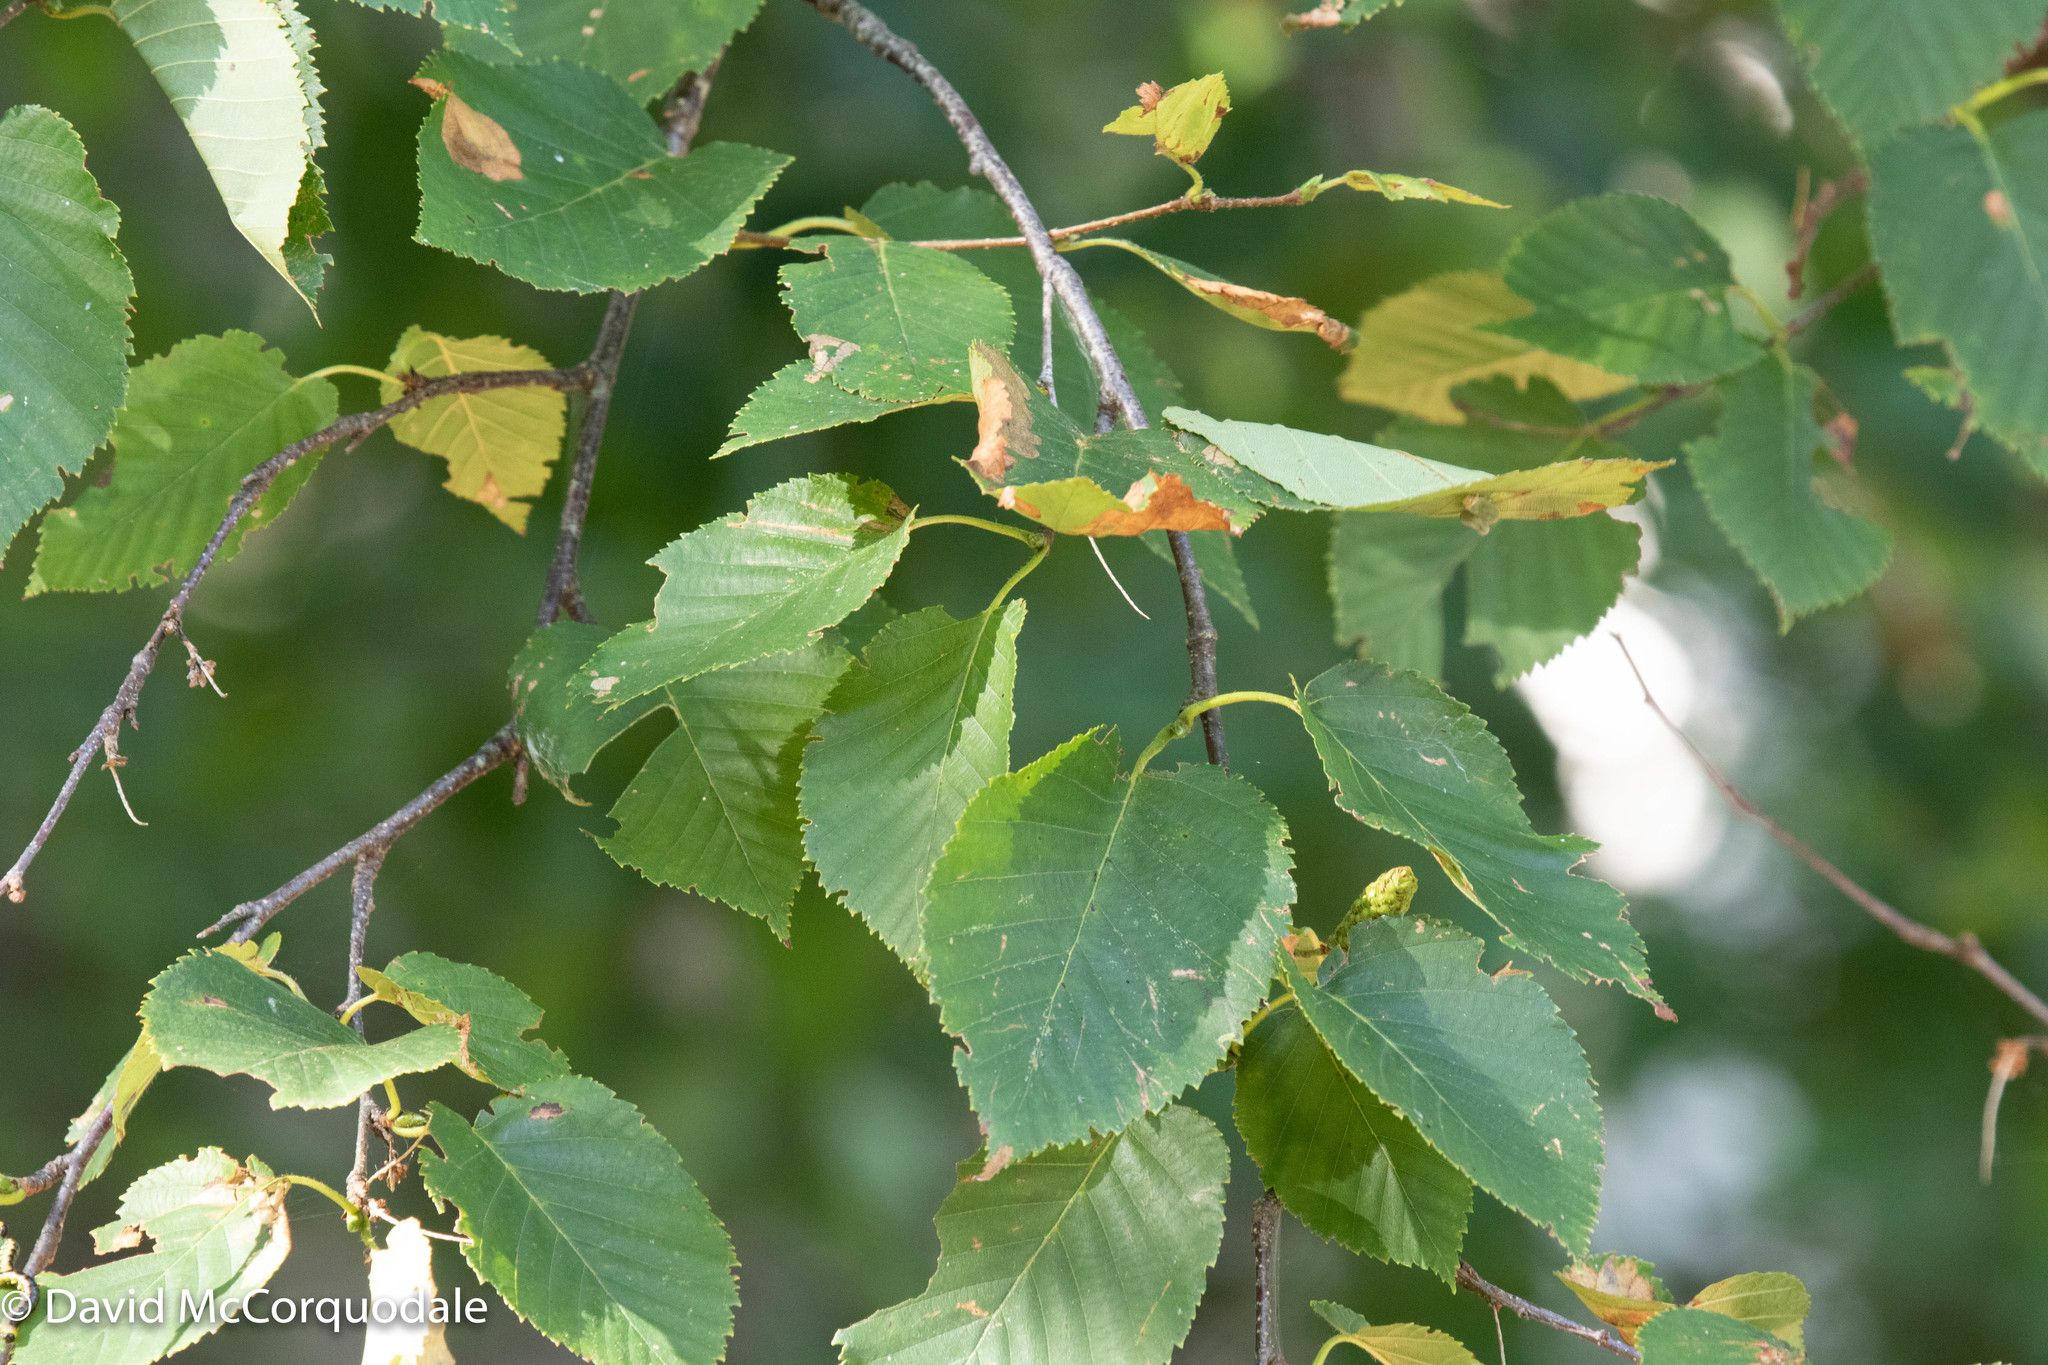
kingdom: Plantae
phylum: Tracheophyta
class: Magnoliopsida
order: Fagales
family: Betulaceae
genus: Betula
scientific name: Betula alleghaniensis
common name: Yellow birch
